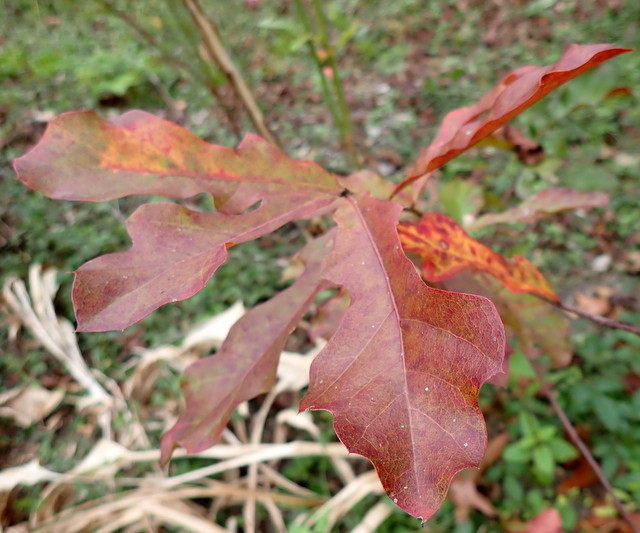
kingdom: Plantae
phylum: Tracheophyta
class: Magnoliopsida
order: Fagales
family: Fagaceae
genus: Quercus
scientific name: Quercus nigra
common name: Water oak
